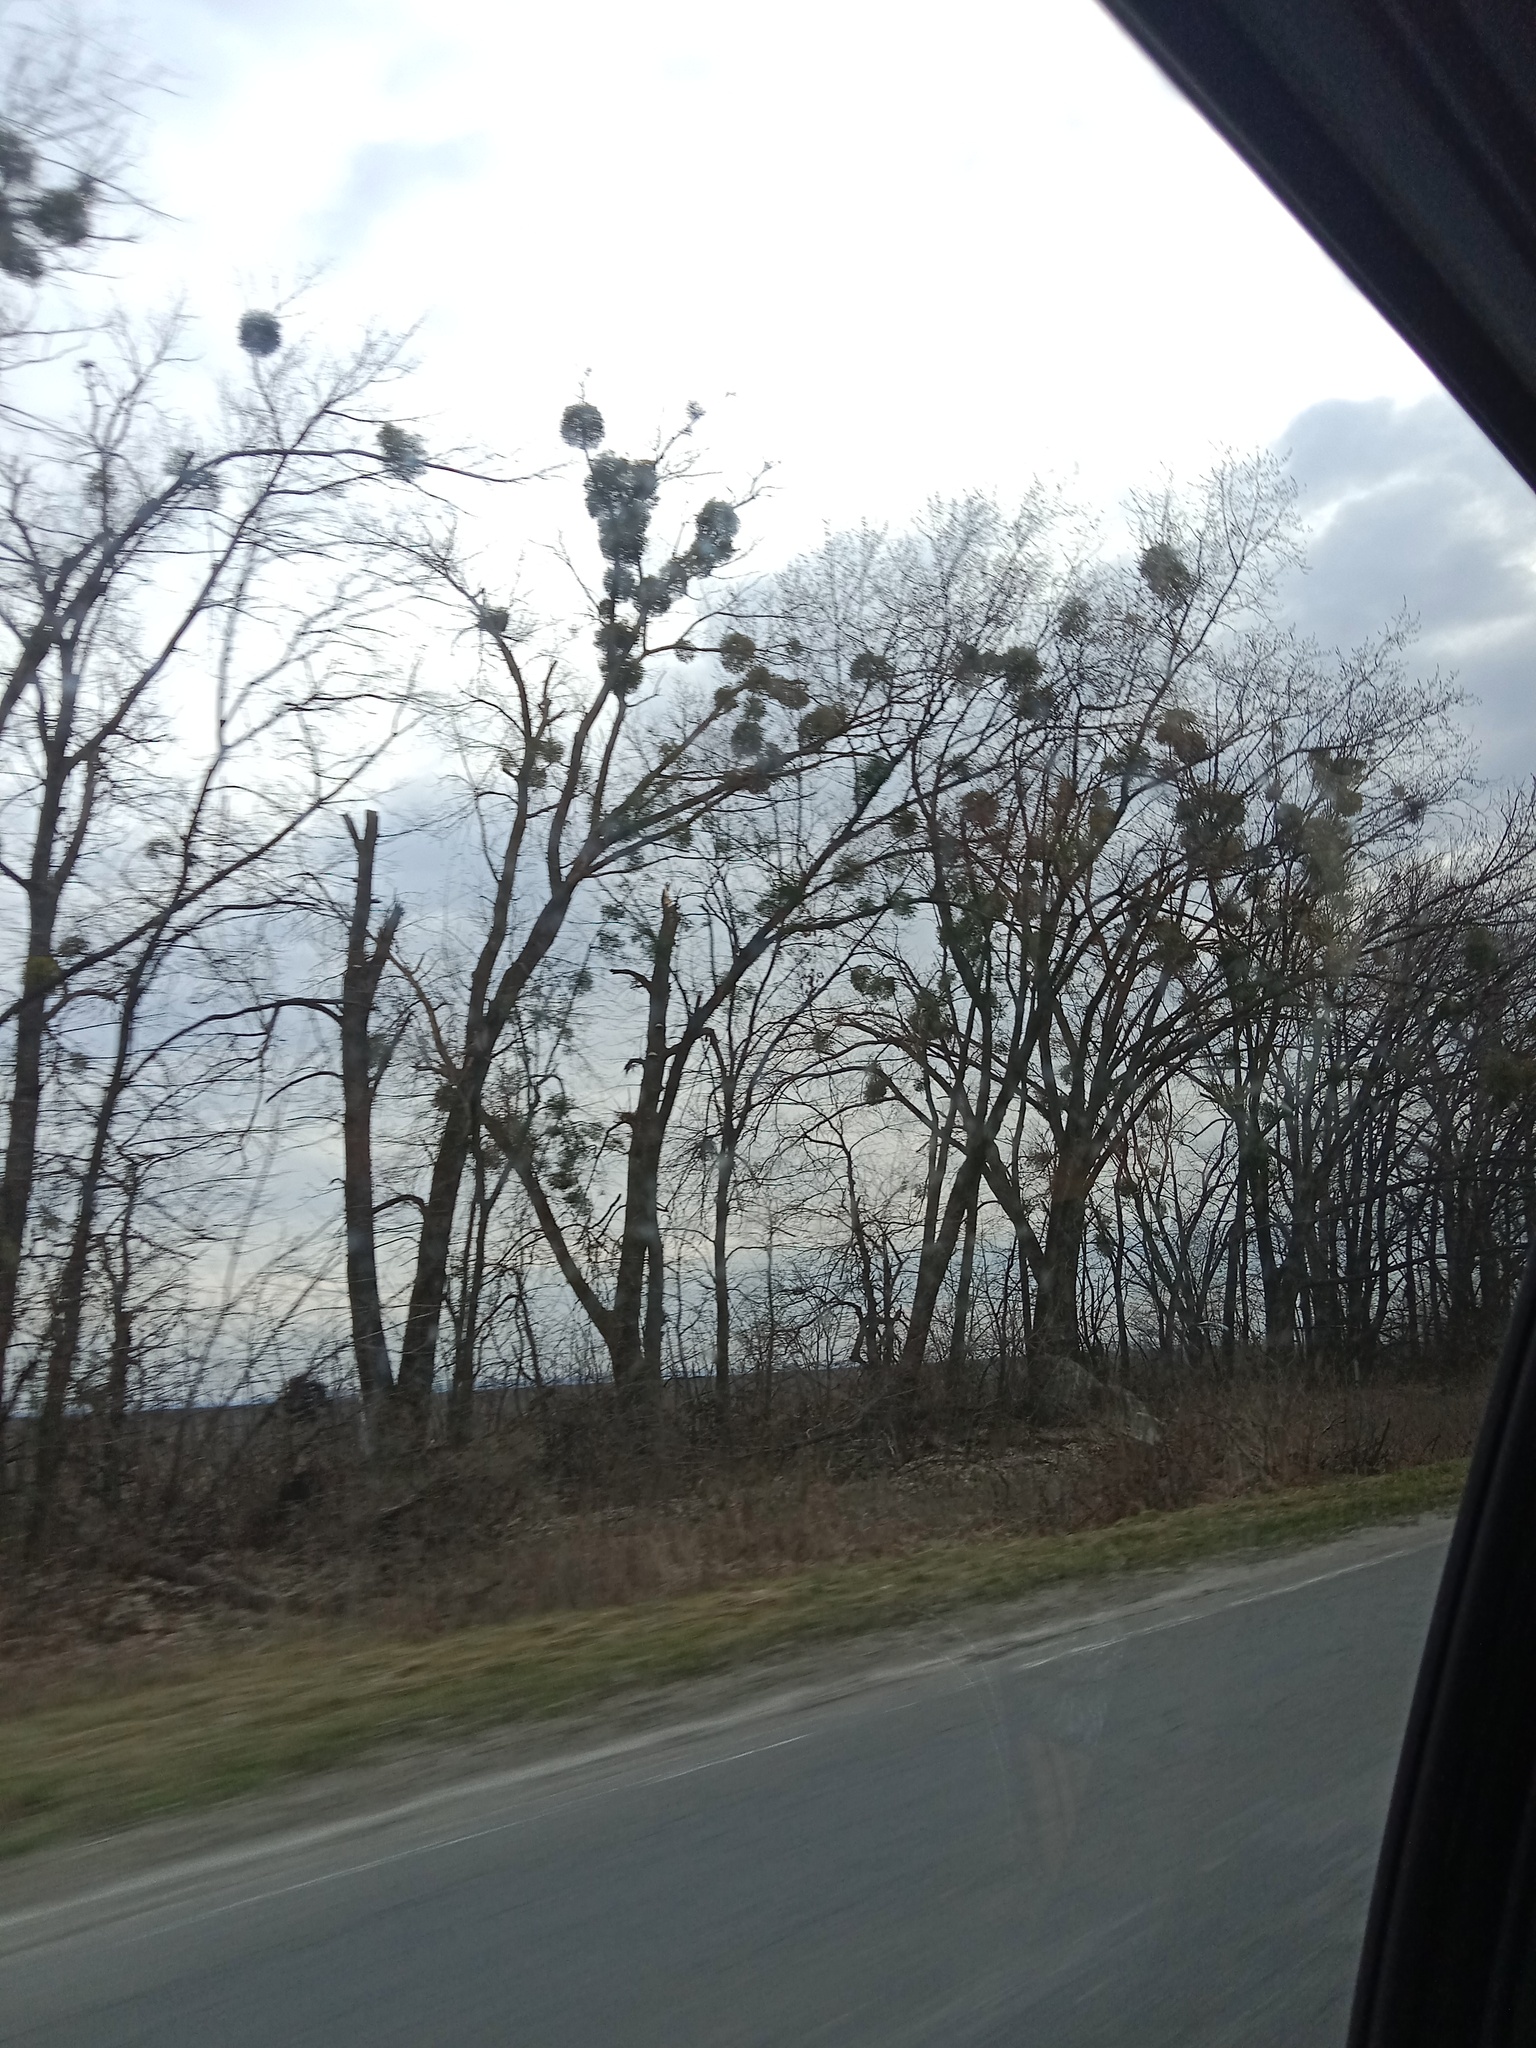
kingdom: Plantae
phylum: Tracheophyta
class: Magnoliopsida
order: Santalales
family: Viscaceae
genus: Viscum
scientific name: Viscum album
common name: Mistletoe
